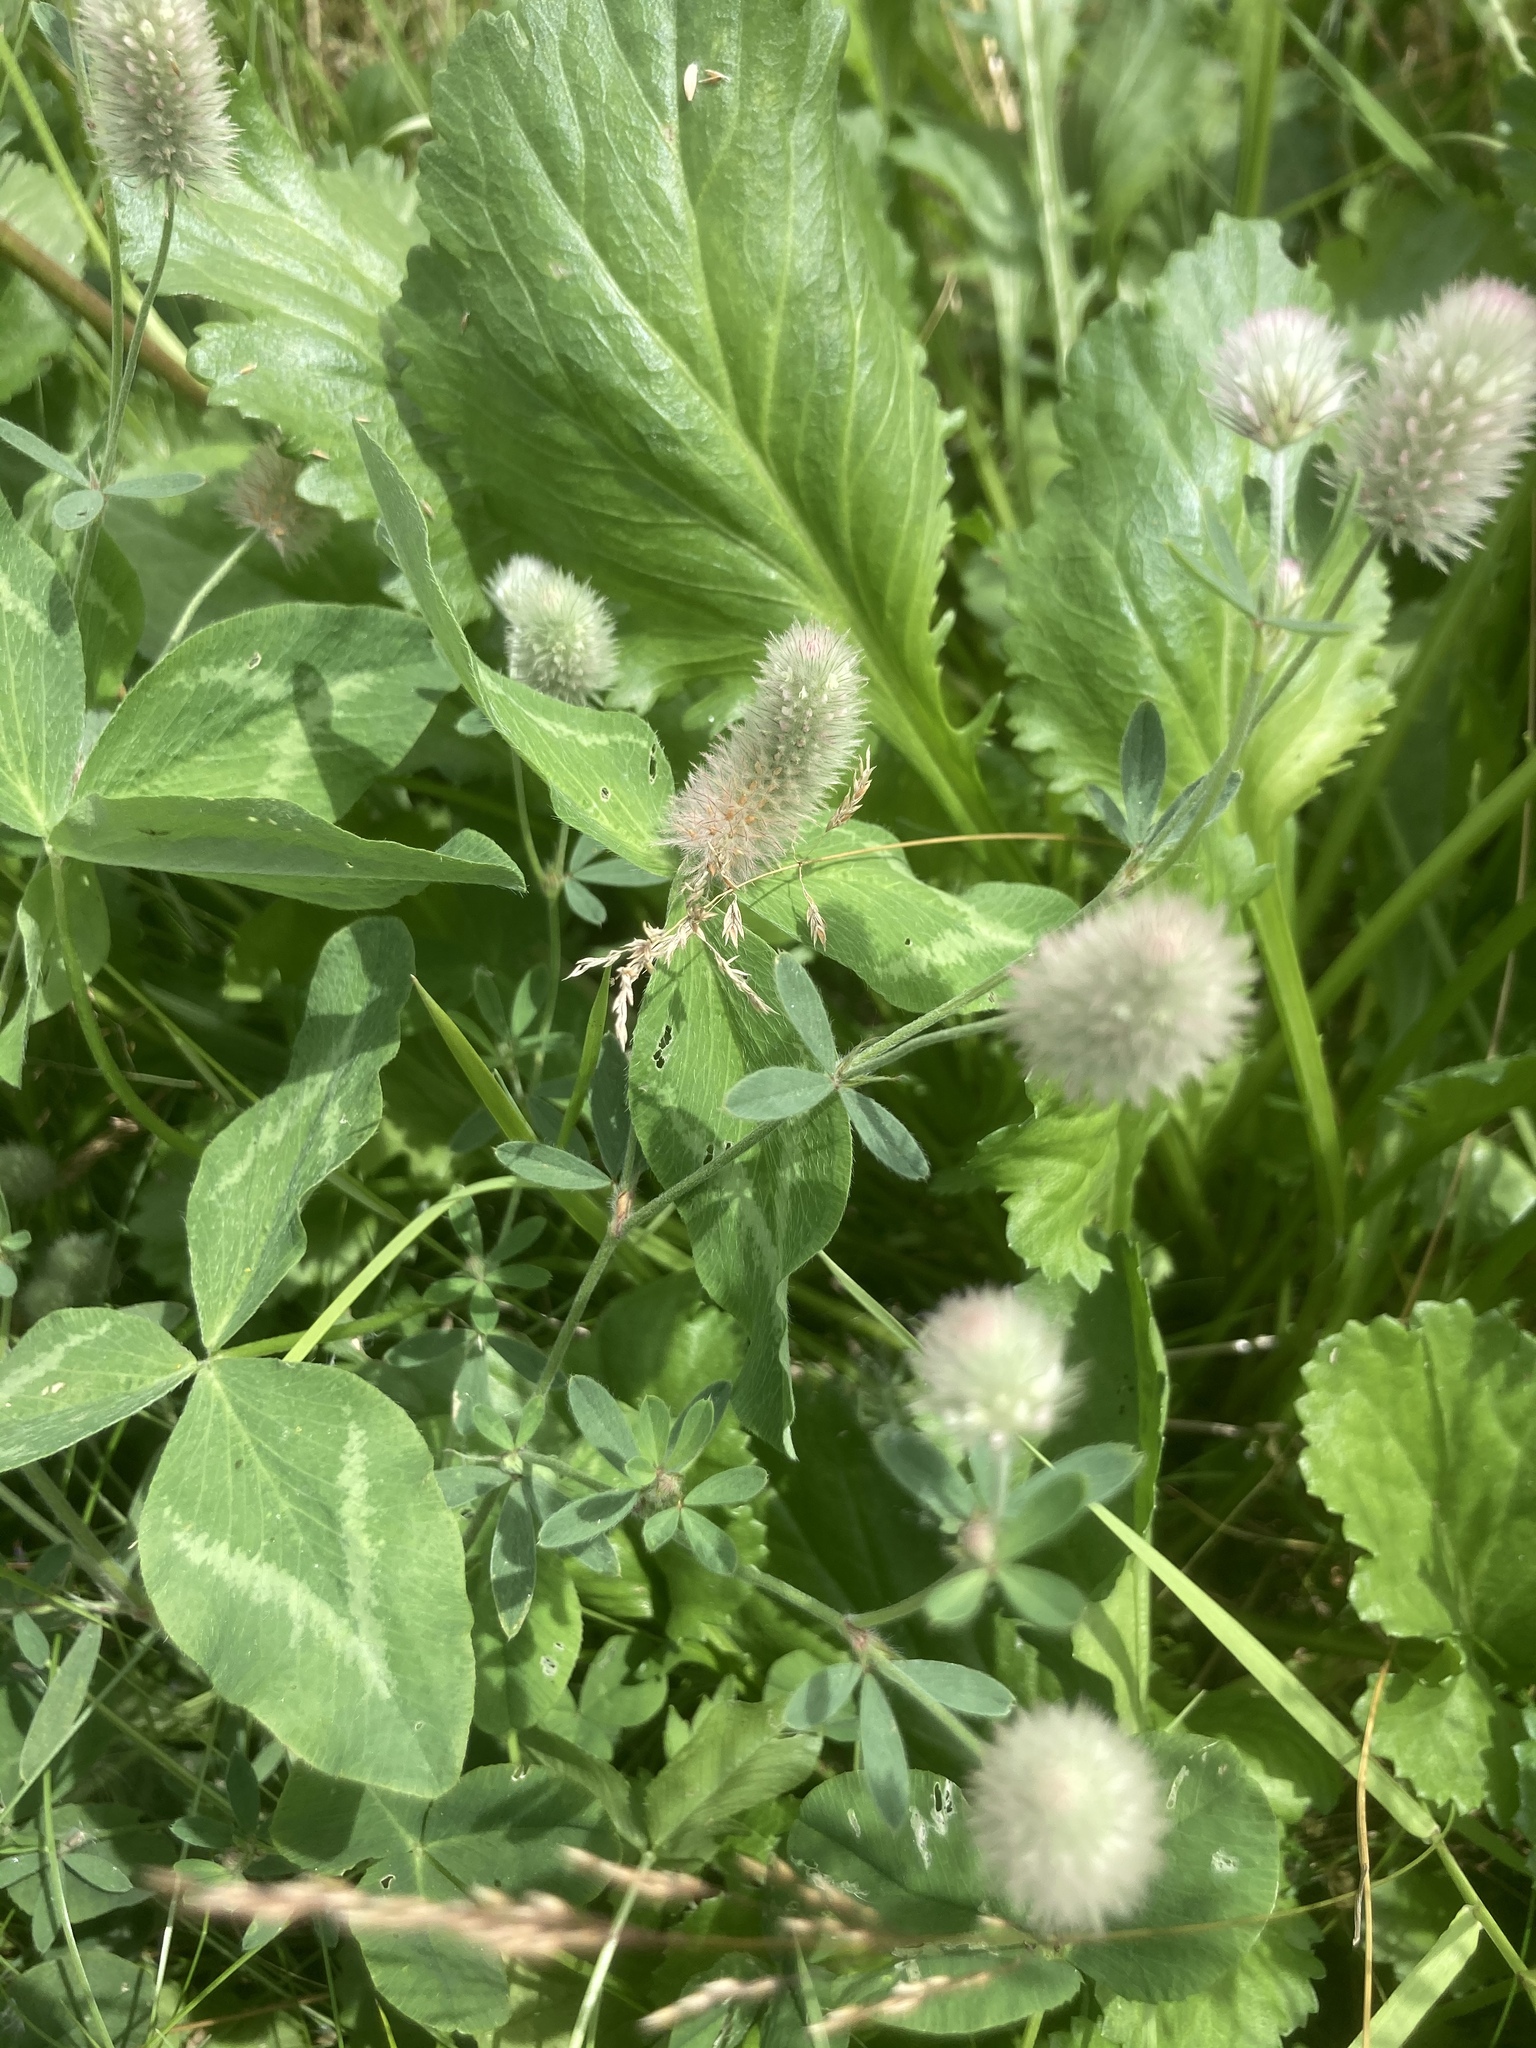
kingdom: Plantae
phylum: Tracheophyta
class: Magnoliopsida
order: Fabales
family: Fabaceae
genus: Trifolium
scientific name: Trifolium arvense
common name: Hare's-foot clover
